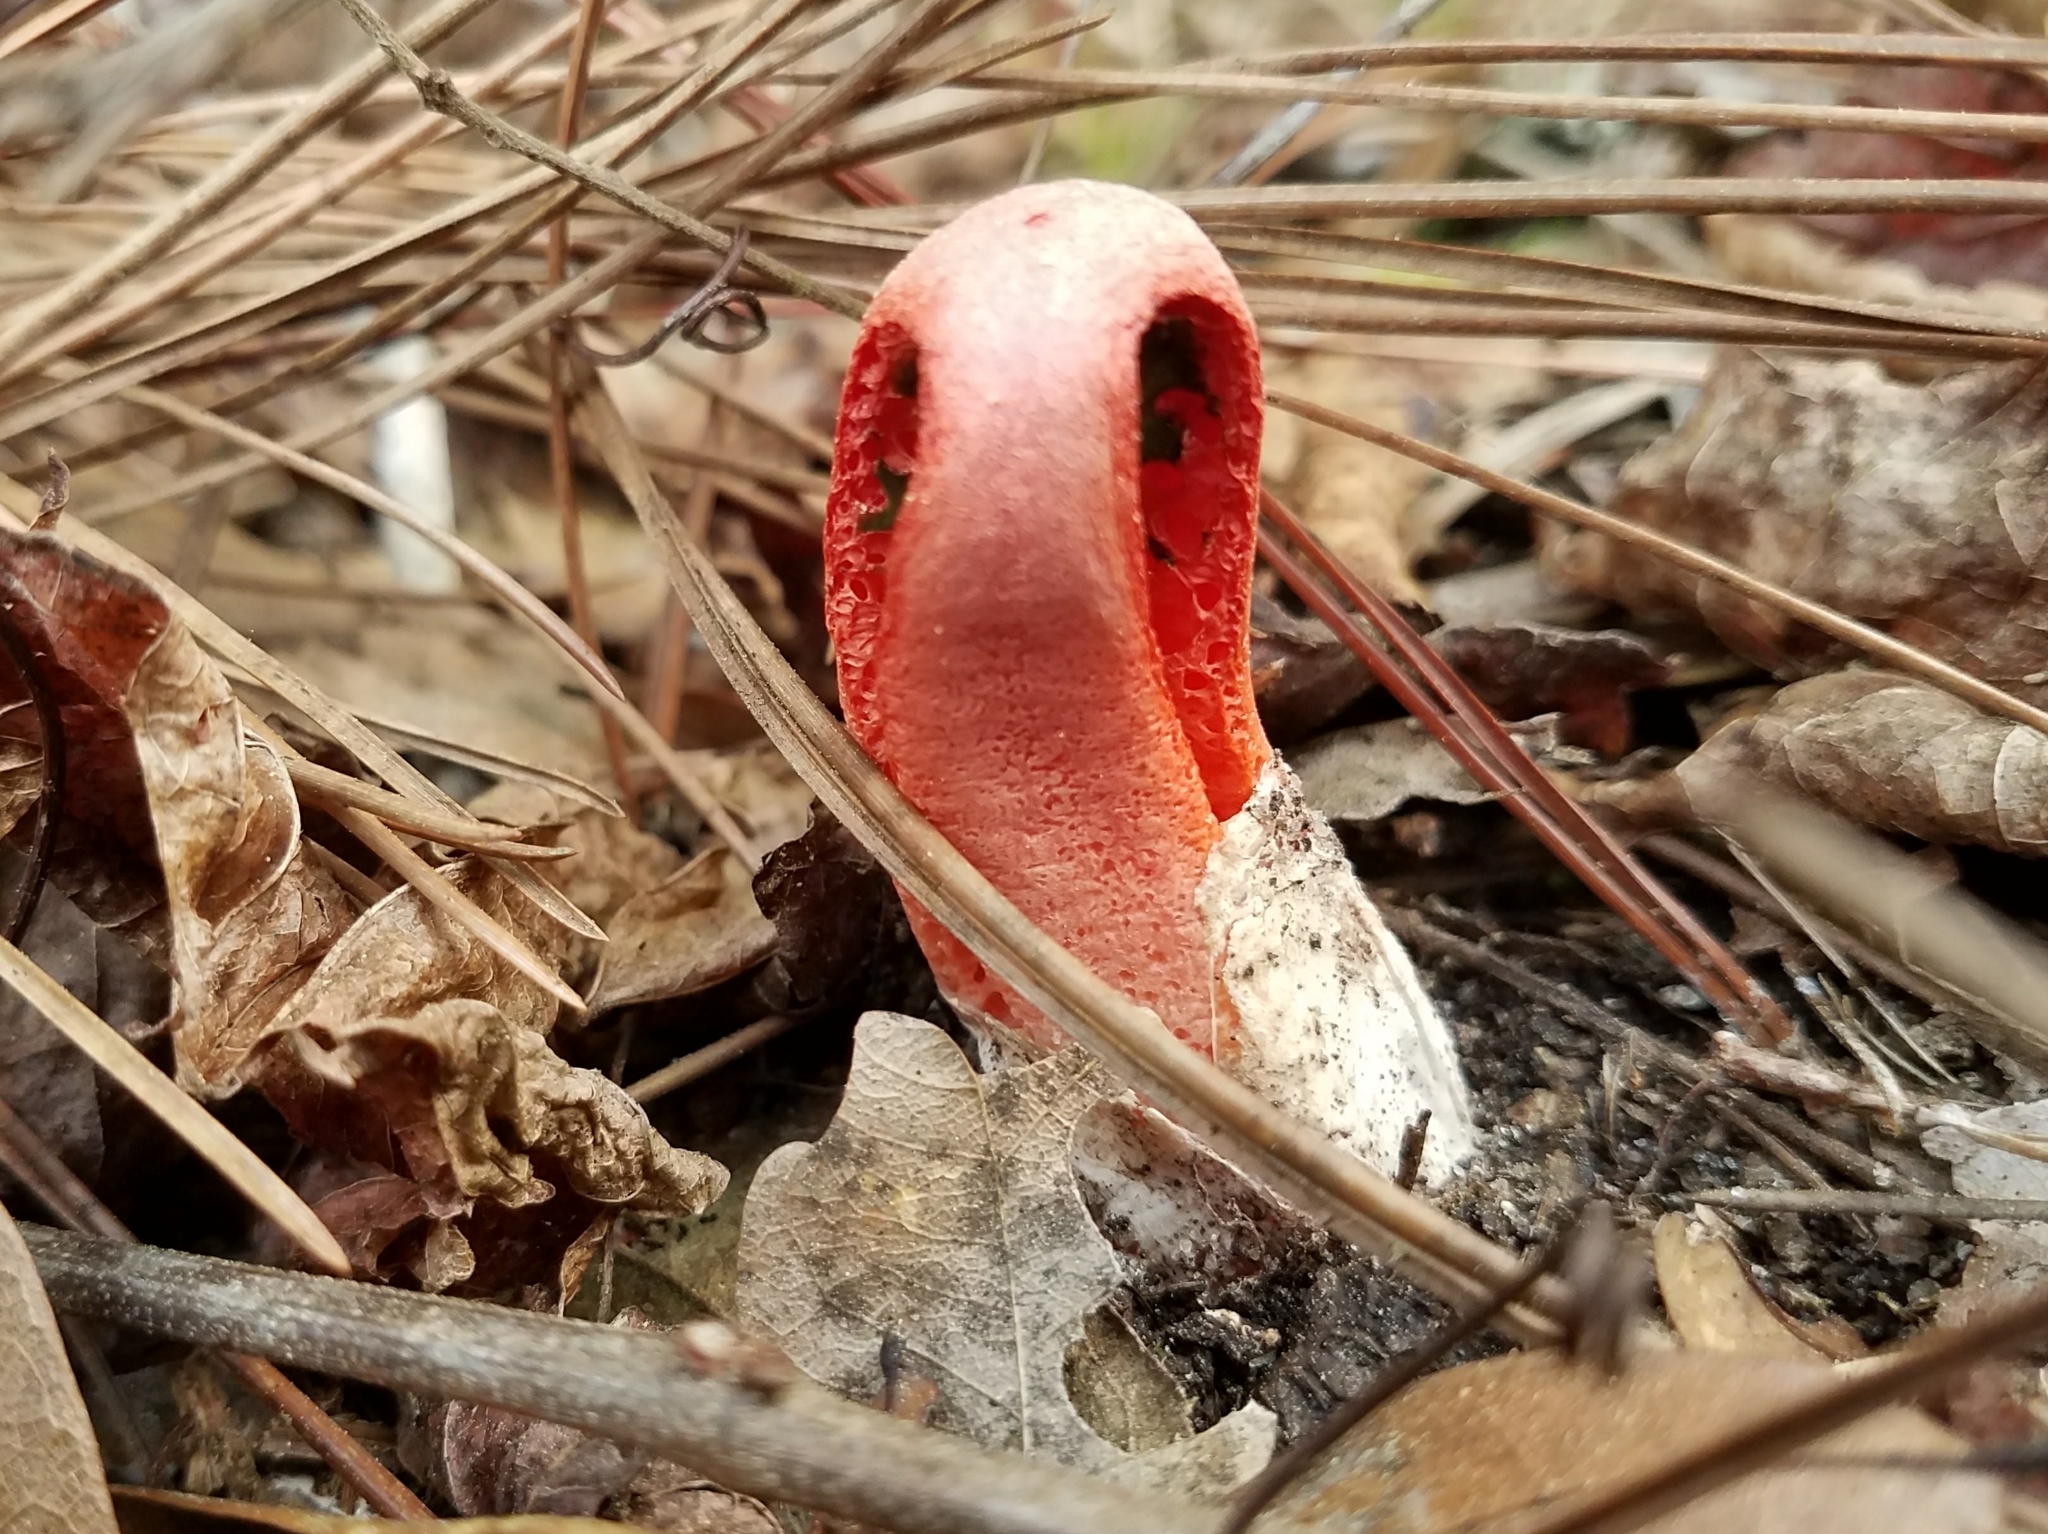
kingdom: Fungi
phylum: Basidiomycota
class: Agaricomycetes
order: Phallales
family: Phallaceae
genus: Clathrus
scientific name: Clathrus columnatus
